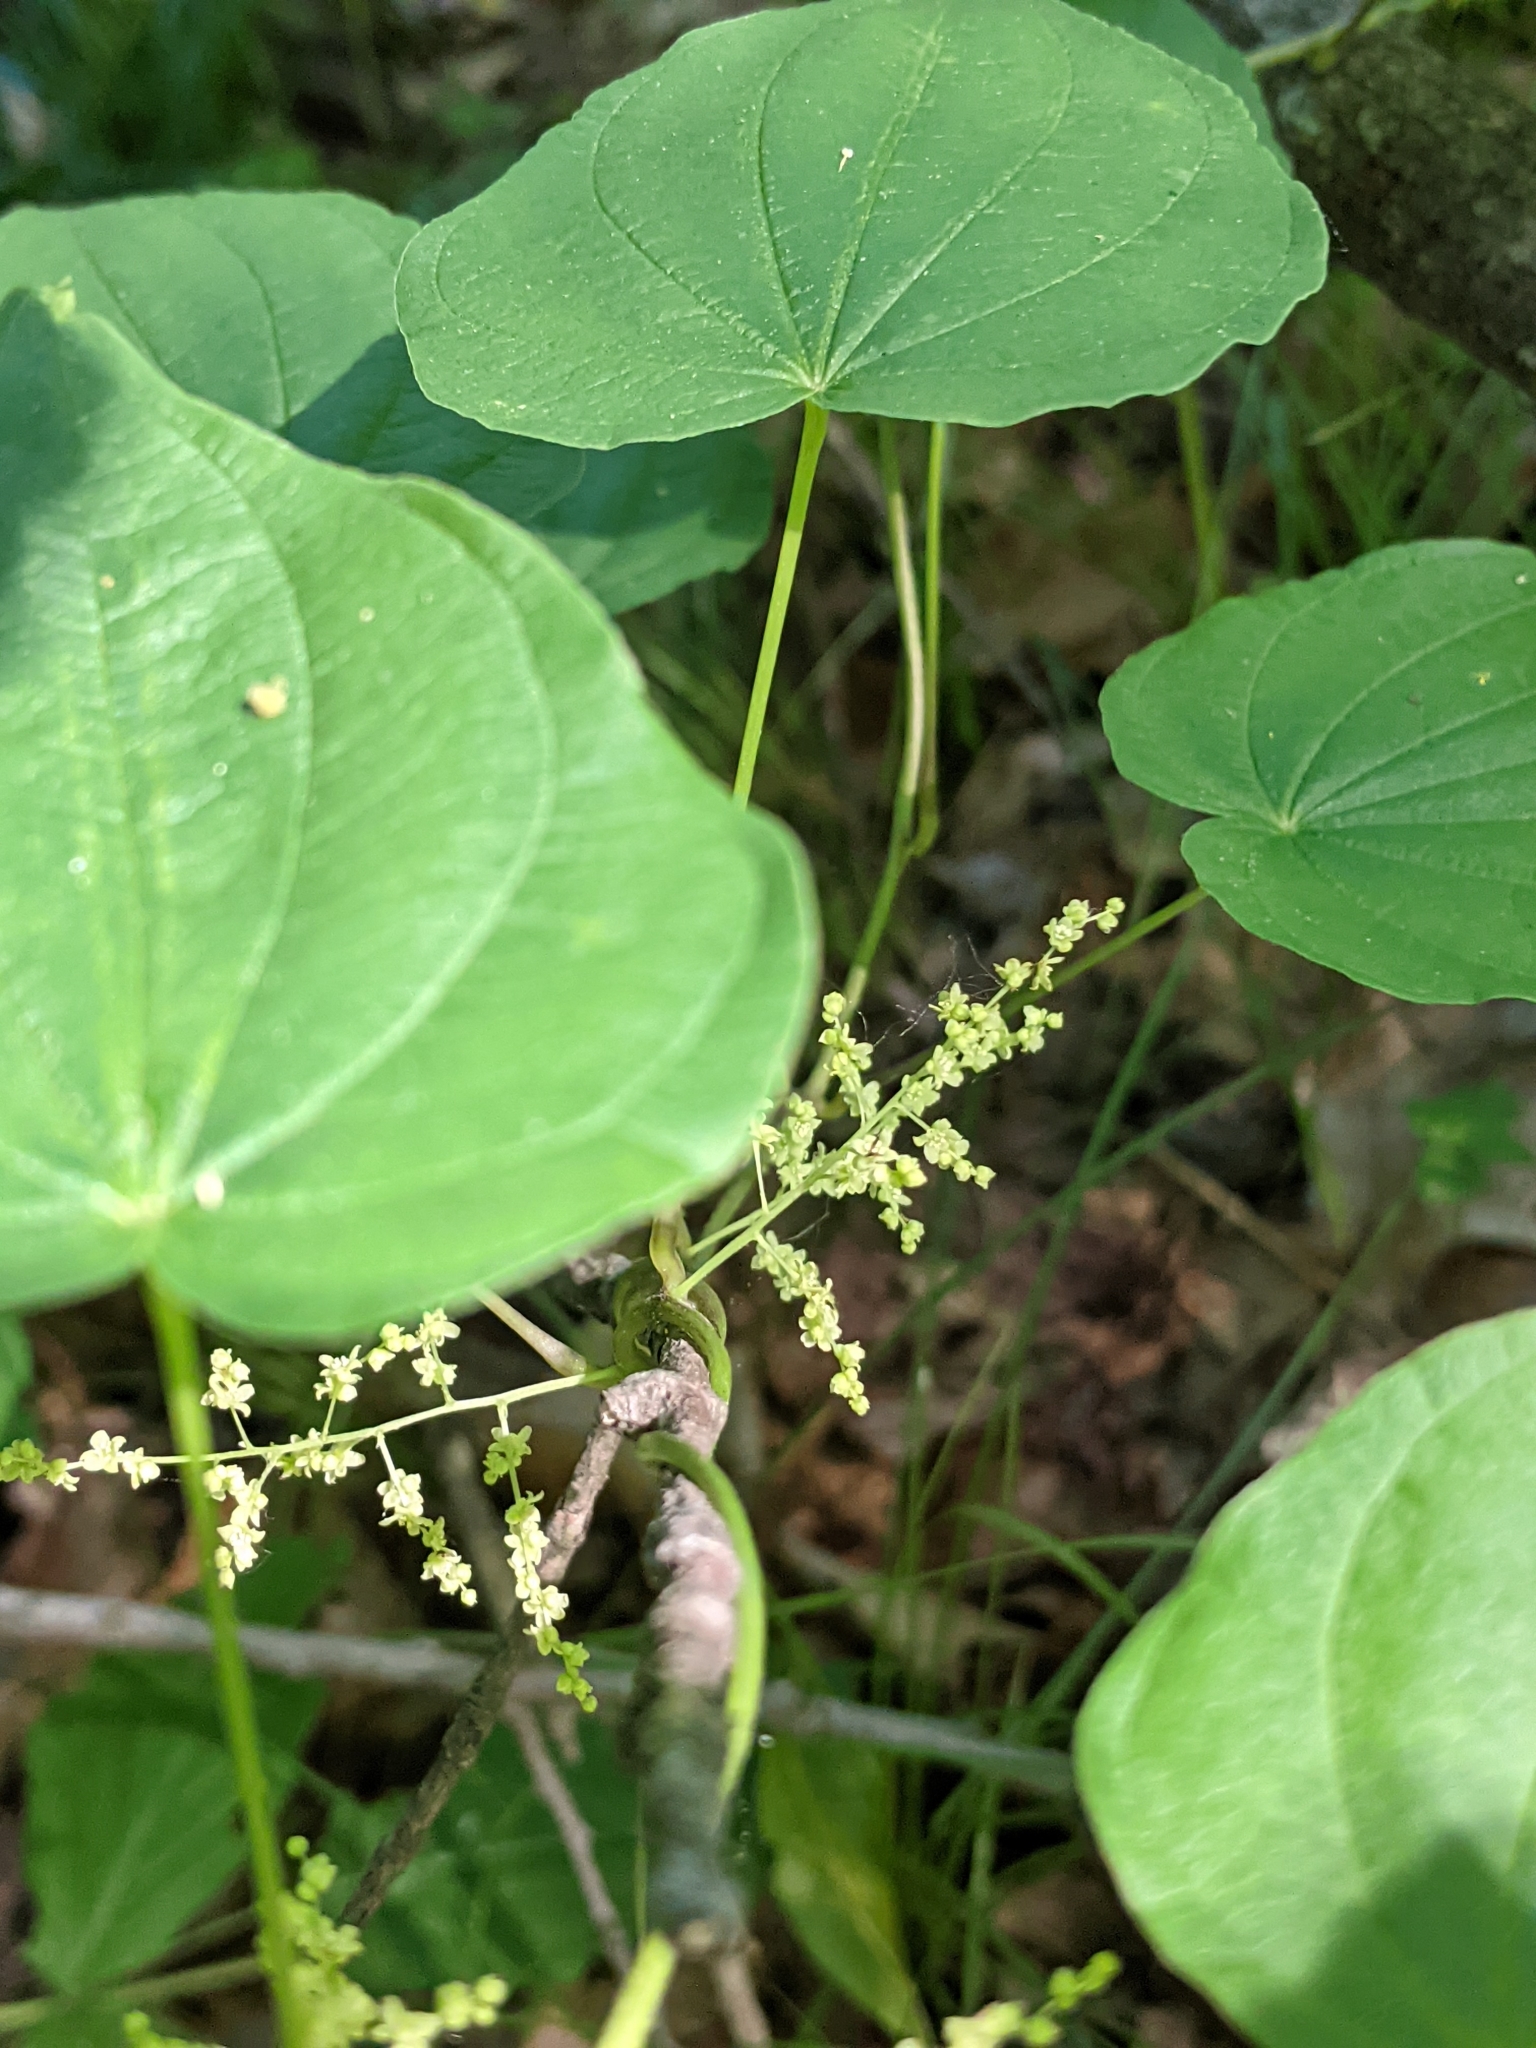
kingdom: Plantae
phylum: Tracheophyta
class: Liliopsida
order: Dioscoreales
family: Dioscoreaceae
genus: Dioscorea
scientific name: Dioscorea villosa
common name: Wild yam
